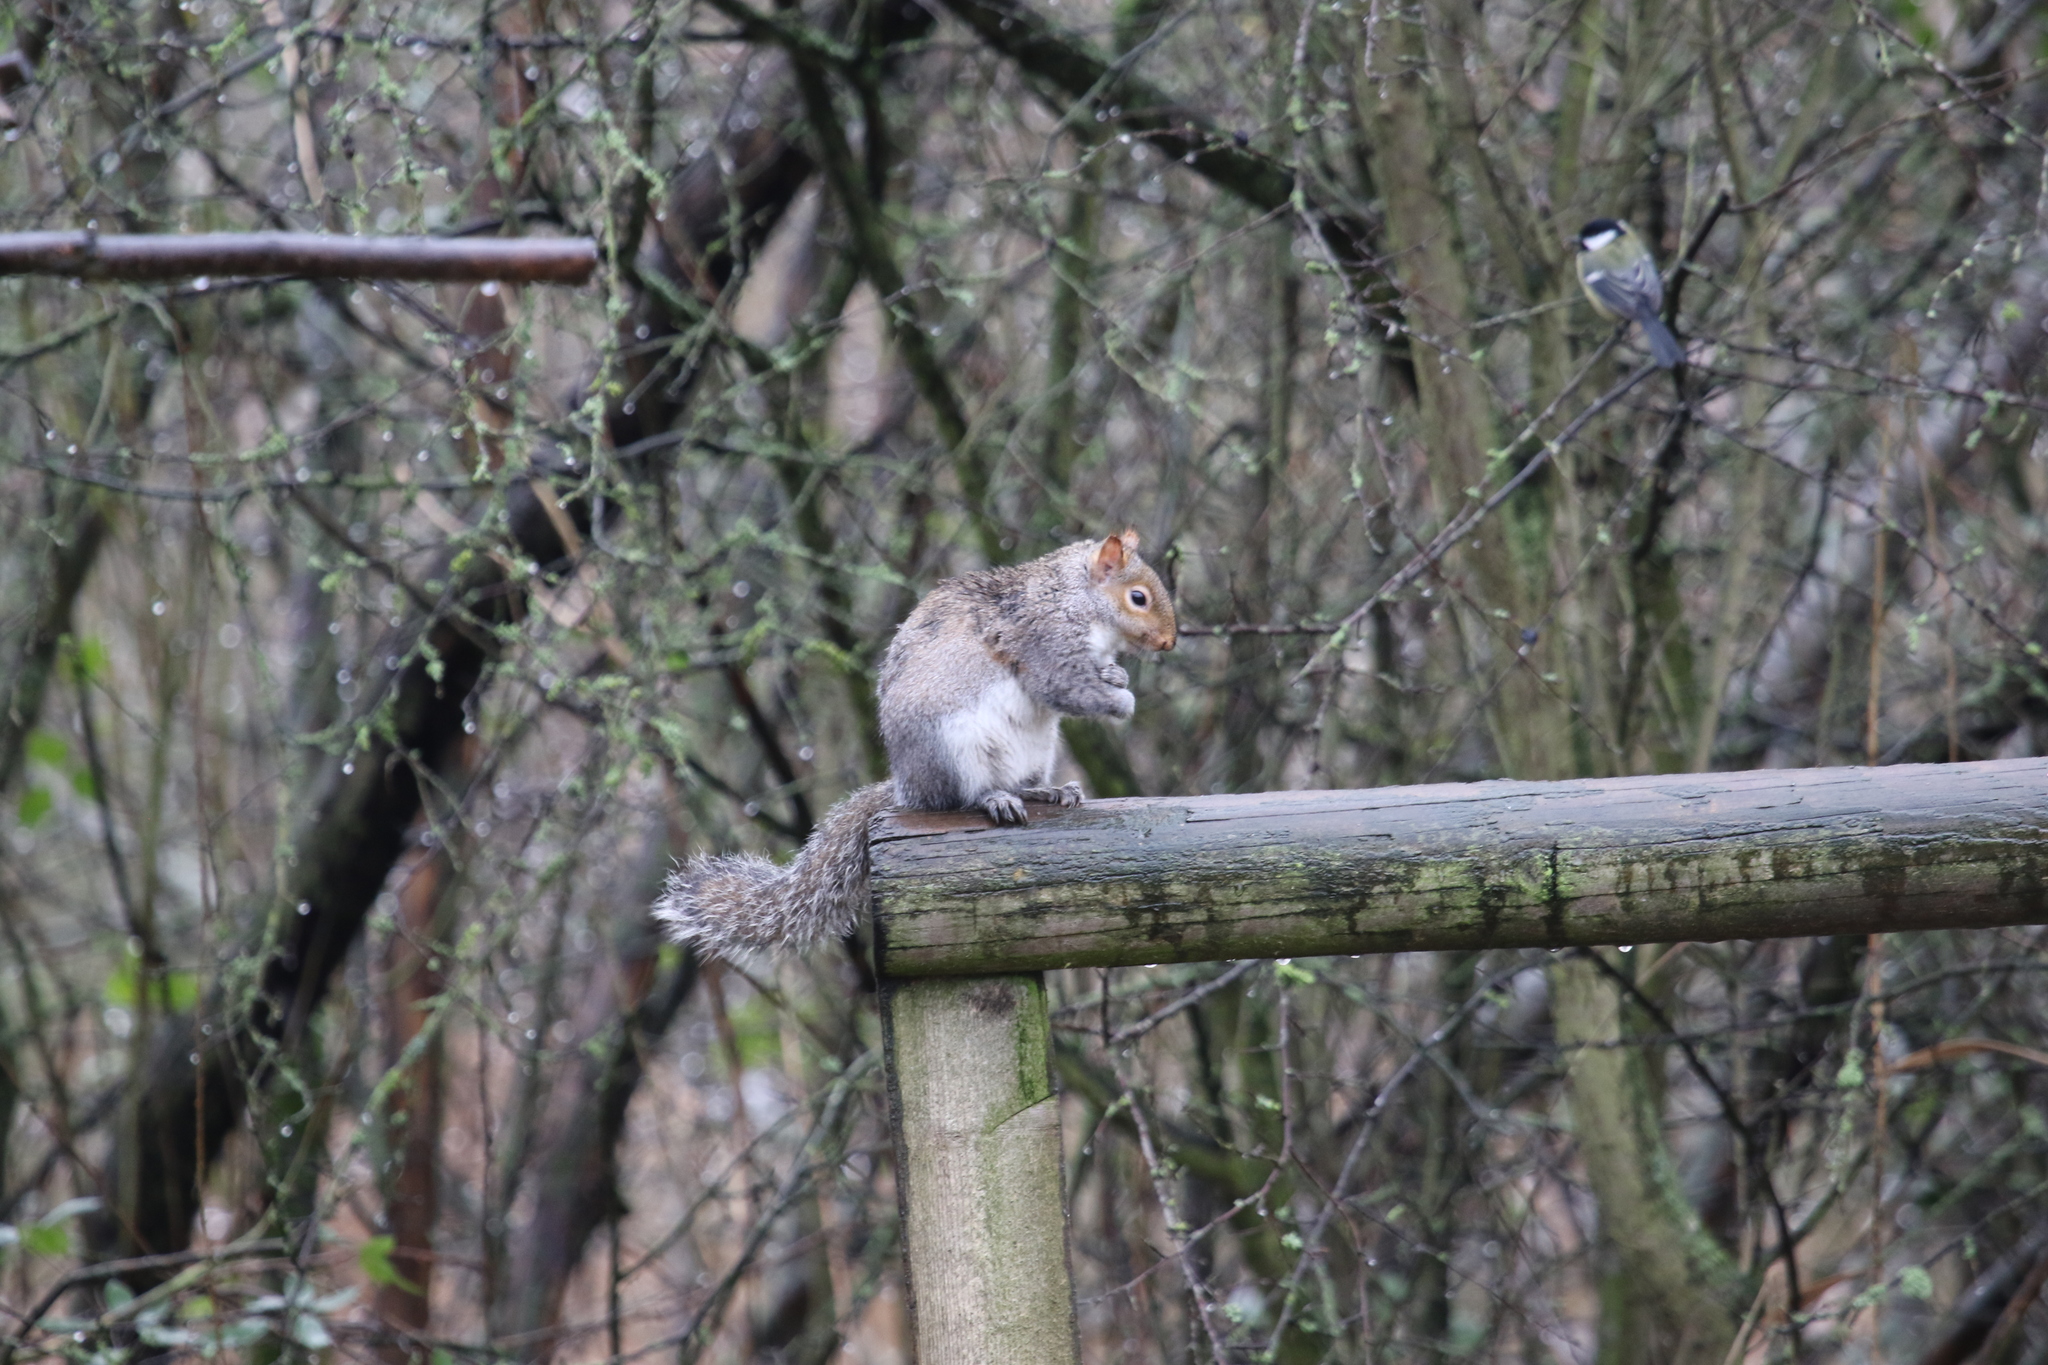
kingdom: Animalia
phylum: Chordata
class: Mammalia
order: Rodentia
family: Sciuridae
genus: Sciurus
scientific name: Sciurus carolinensis
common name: Eastern gray squirrel
